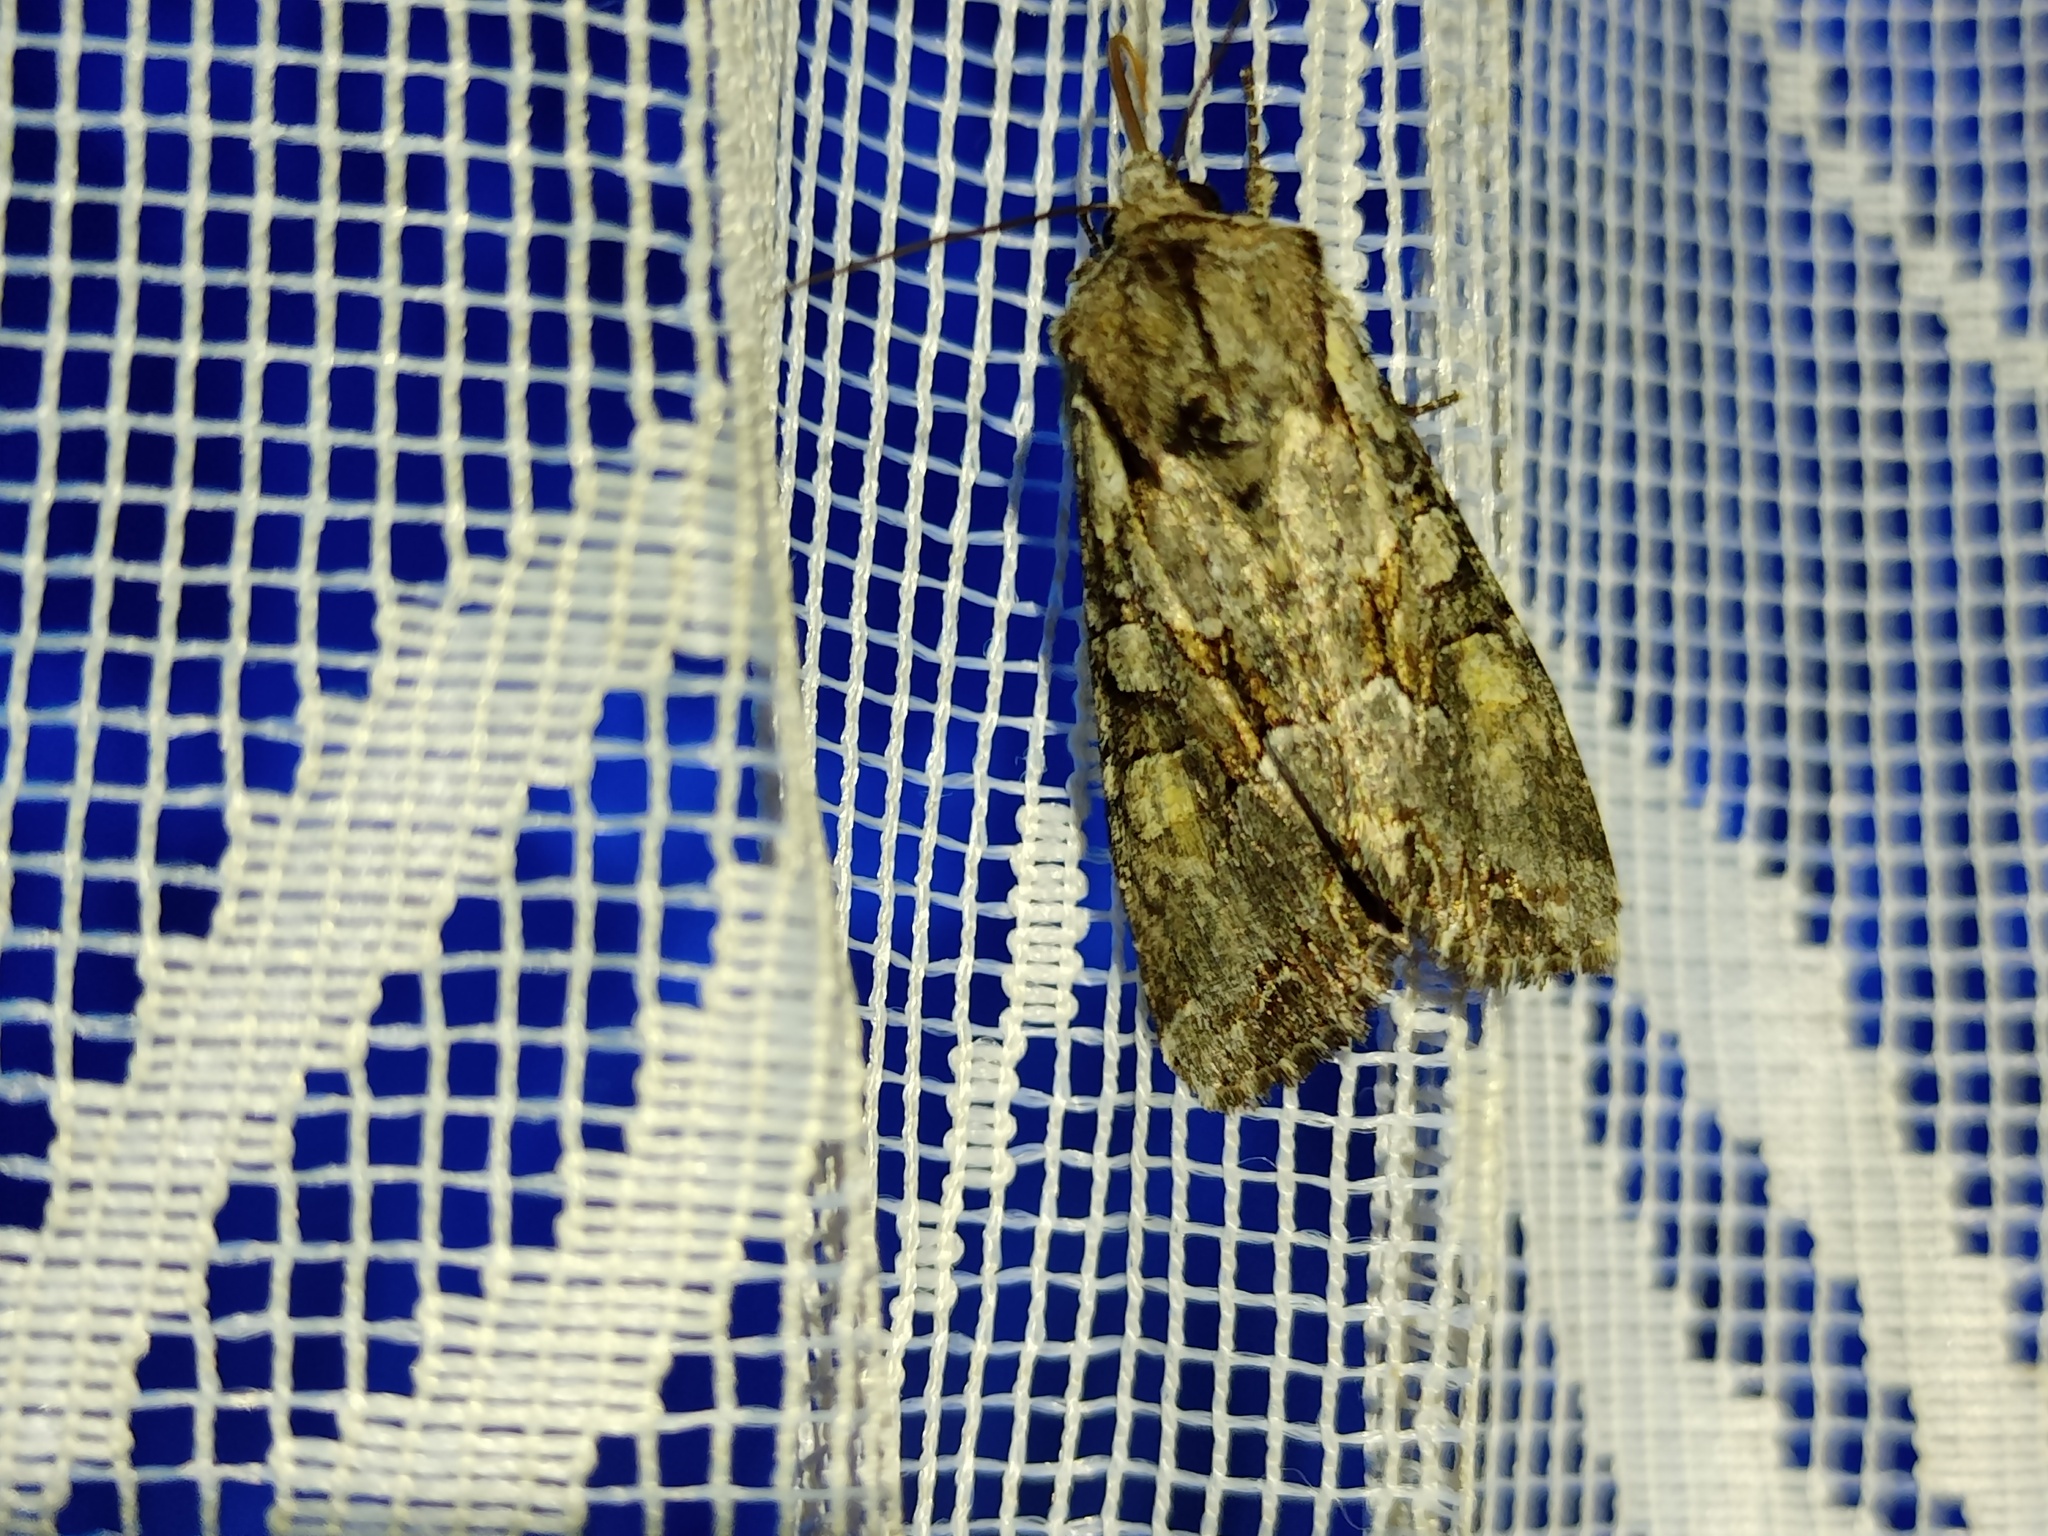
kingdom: Animalia
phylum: Arthropoda
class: Insecta
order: Lepidoptera
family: Noctuidae
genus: Lacanobia
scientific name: Lacanobia w-latinum
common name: Light brocade
